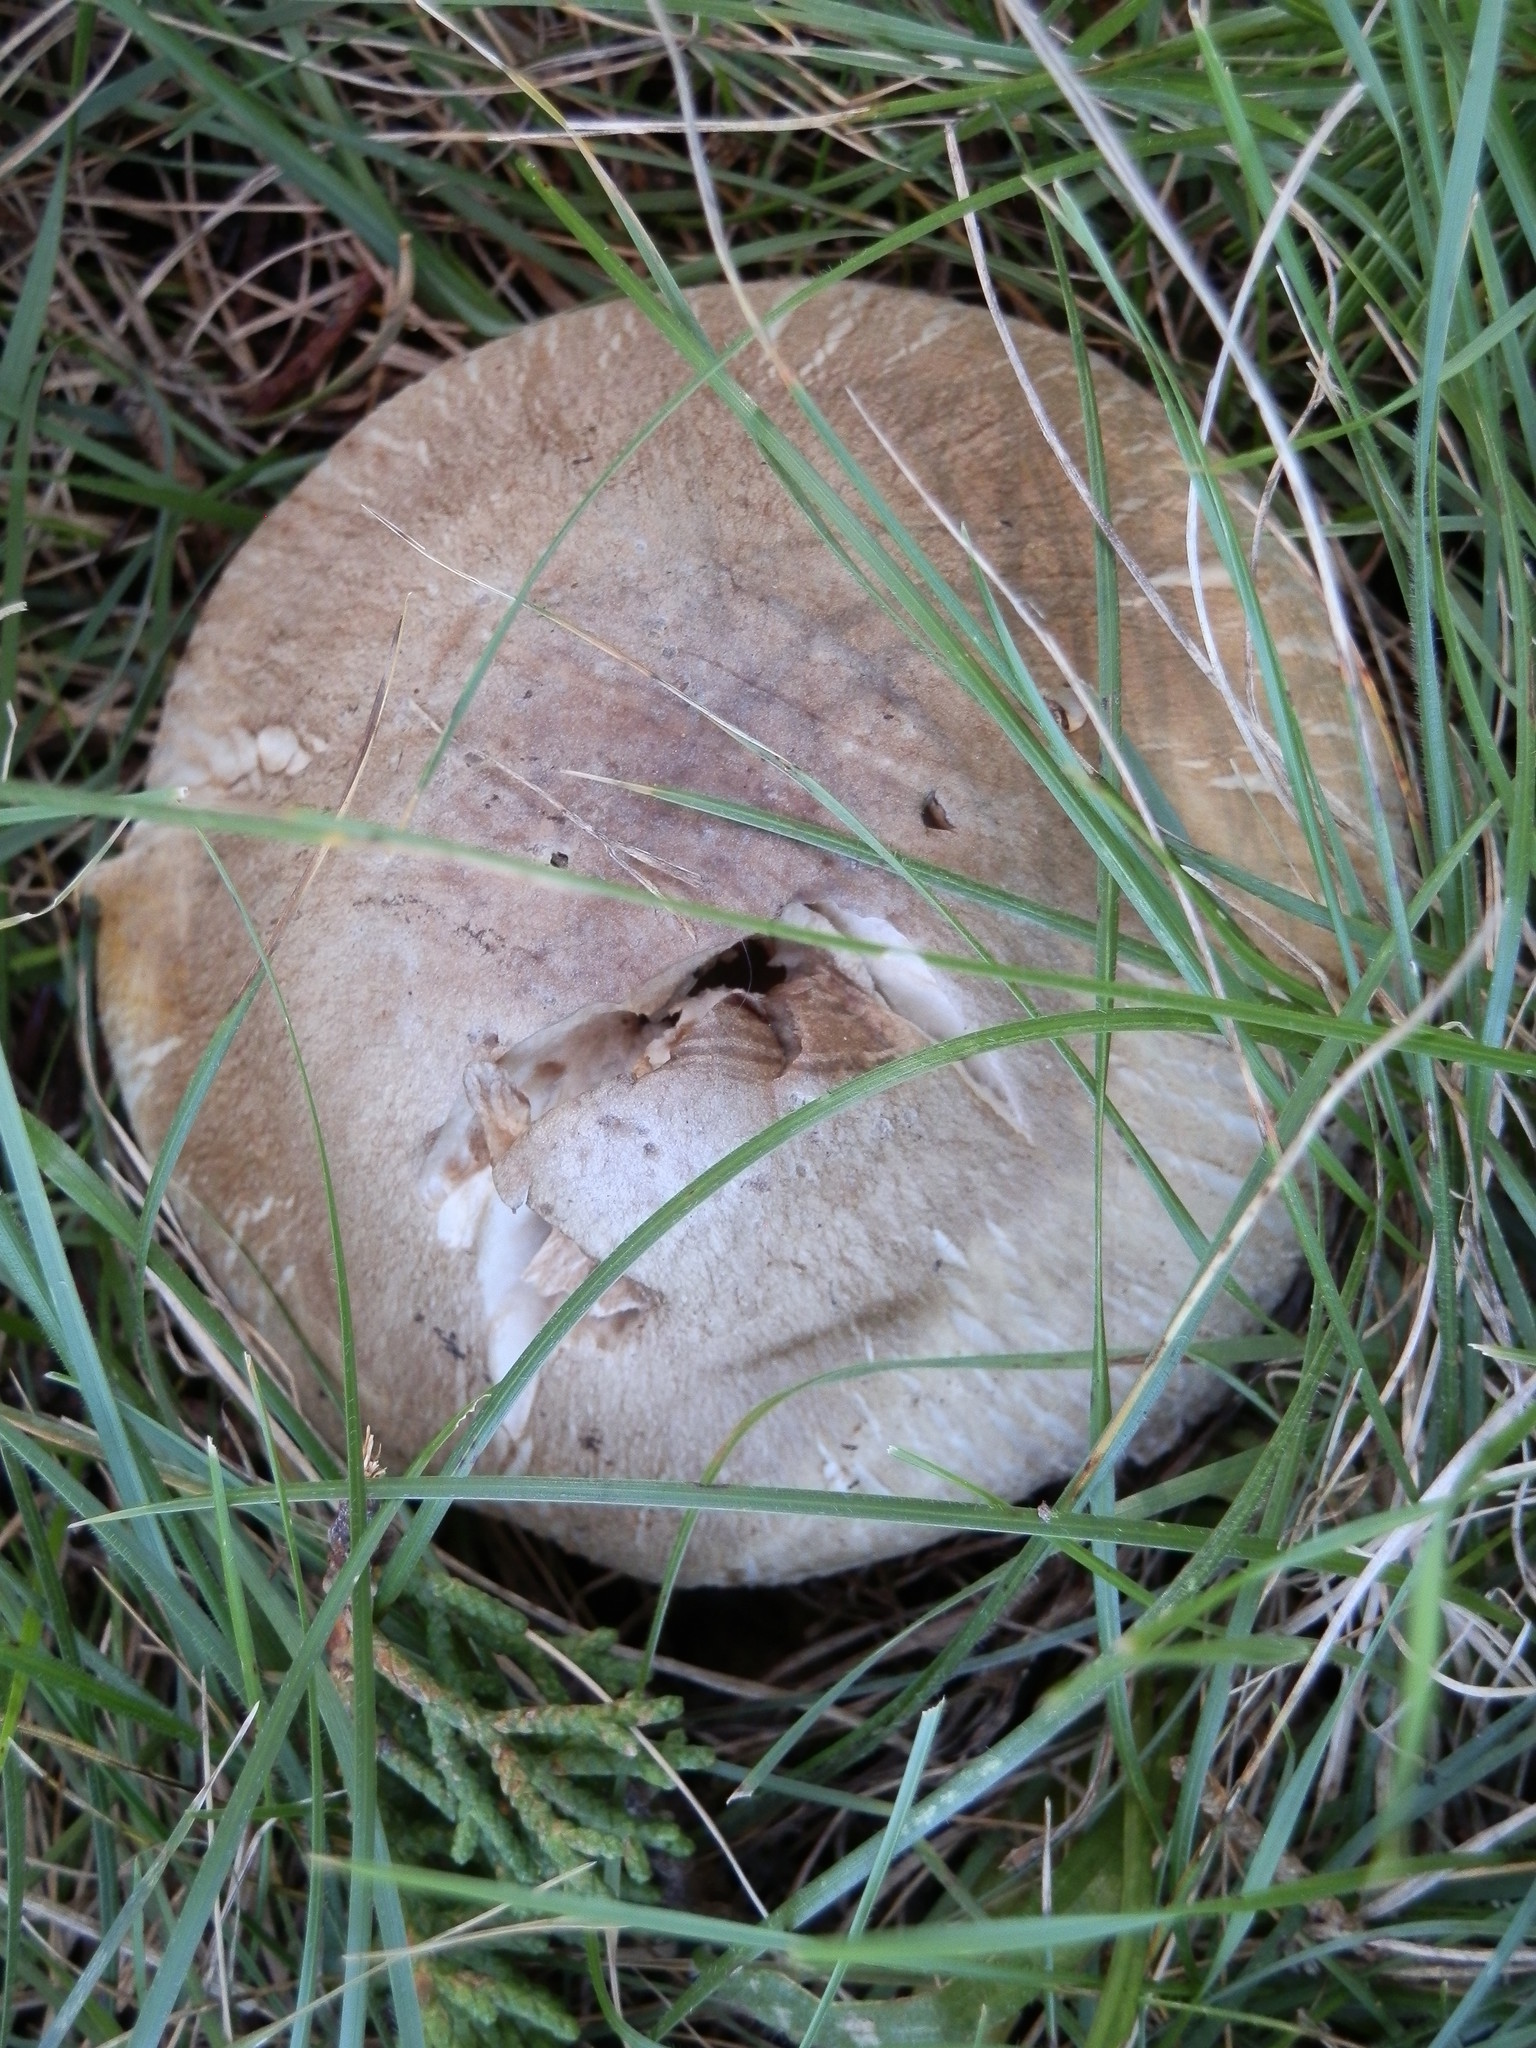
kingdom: Fungi
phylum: Basidiomycota
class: Agaricomycetes
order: Agaricales
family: Agaricaceae
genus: Agaricus
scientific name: Agaricus californicus
